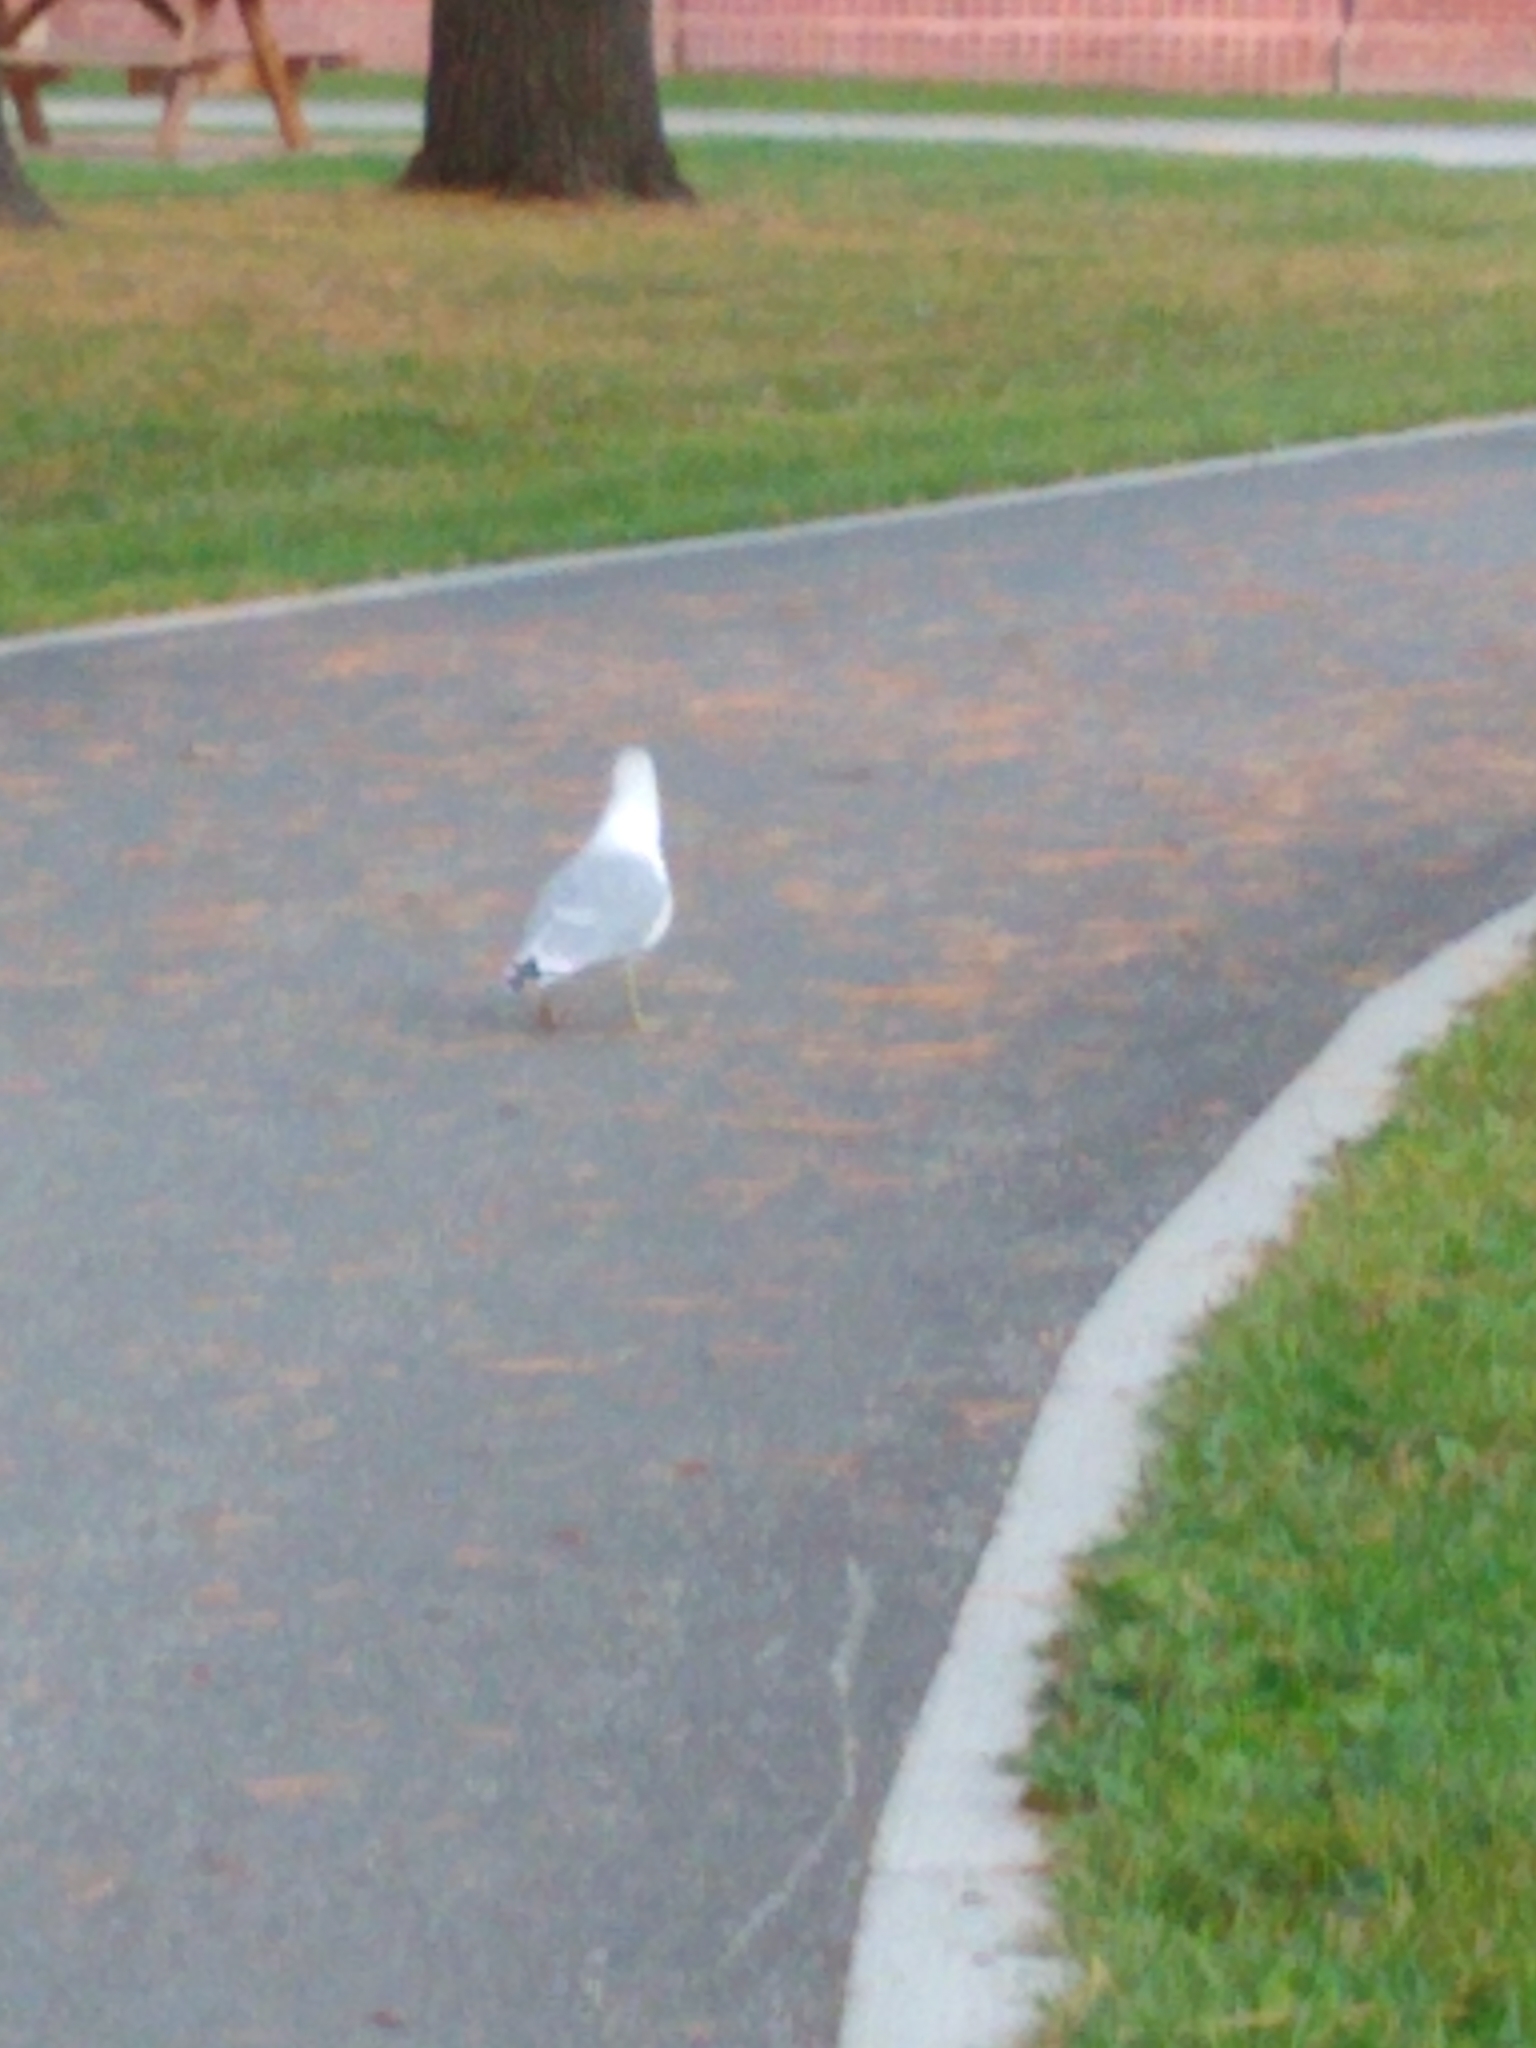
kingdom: Animalia
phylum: Chordata
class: Aves
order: Charadriiformes
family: Laridae
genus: Larus
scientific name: Larus delawarensis
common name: Ring-billed gull
